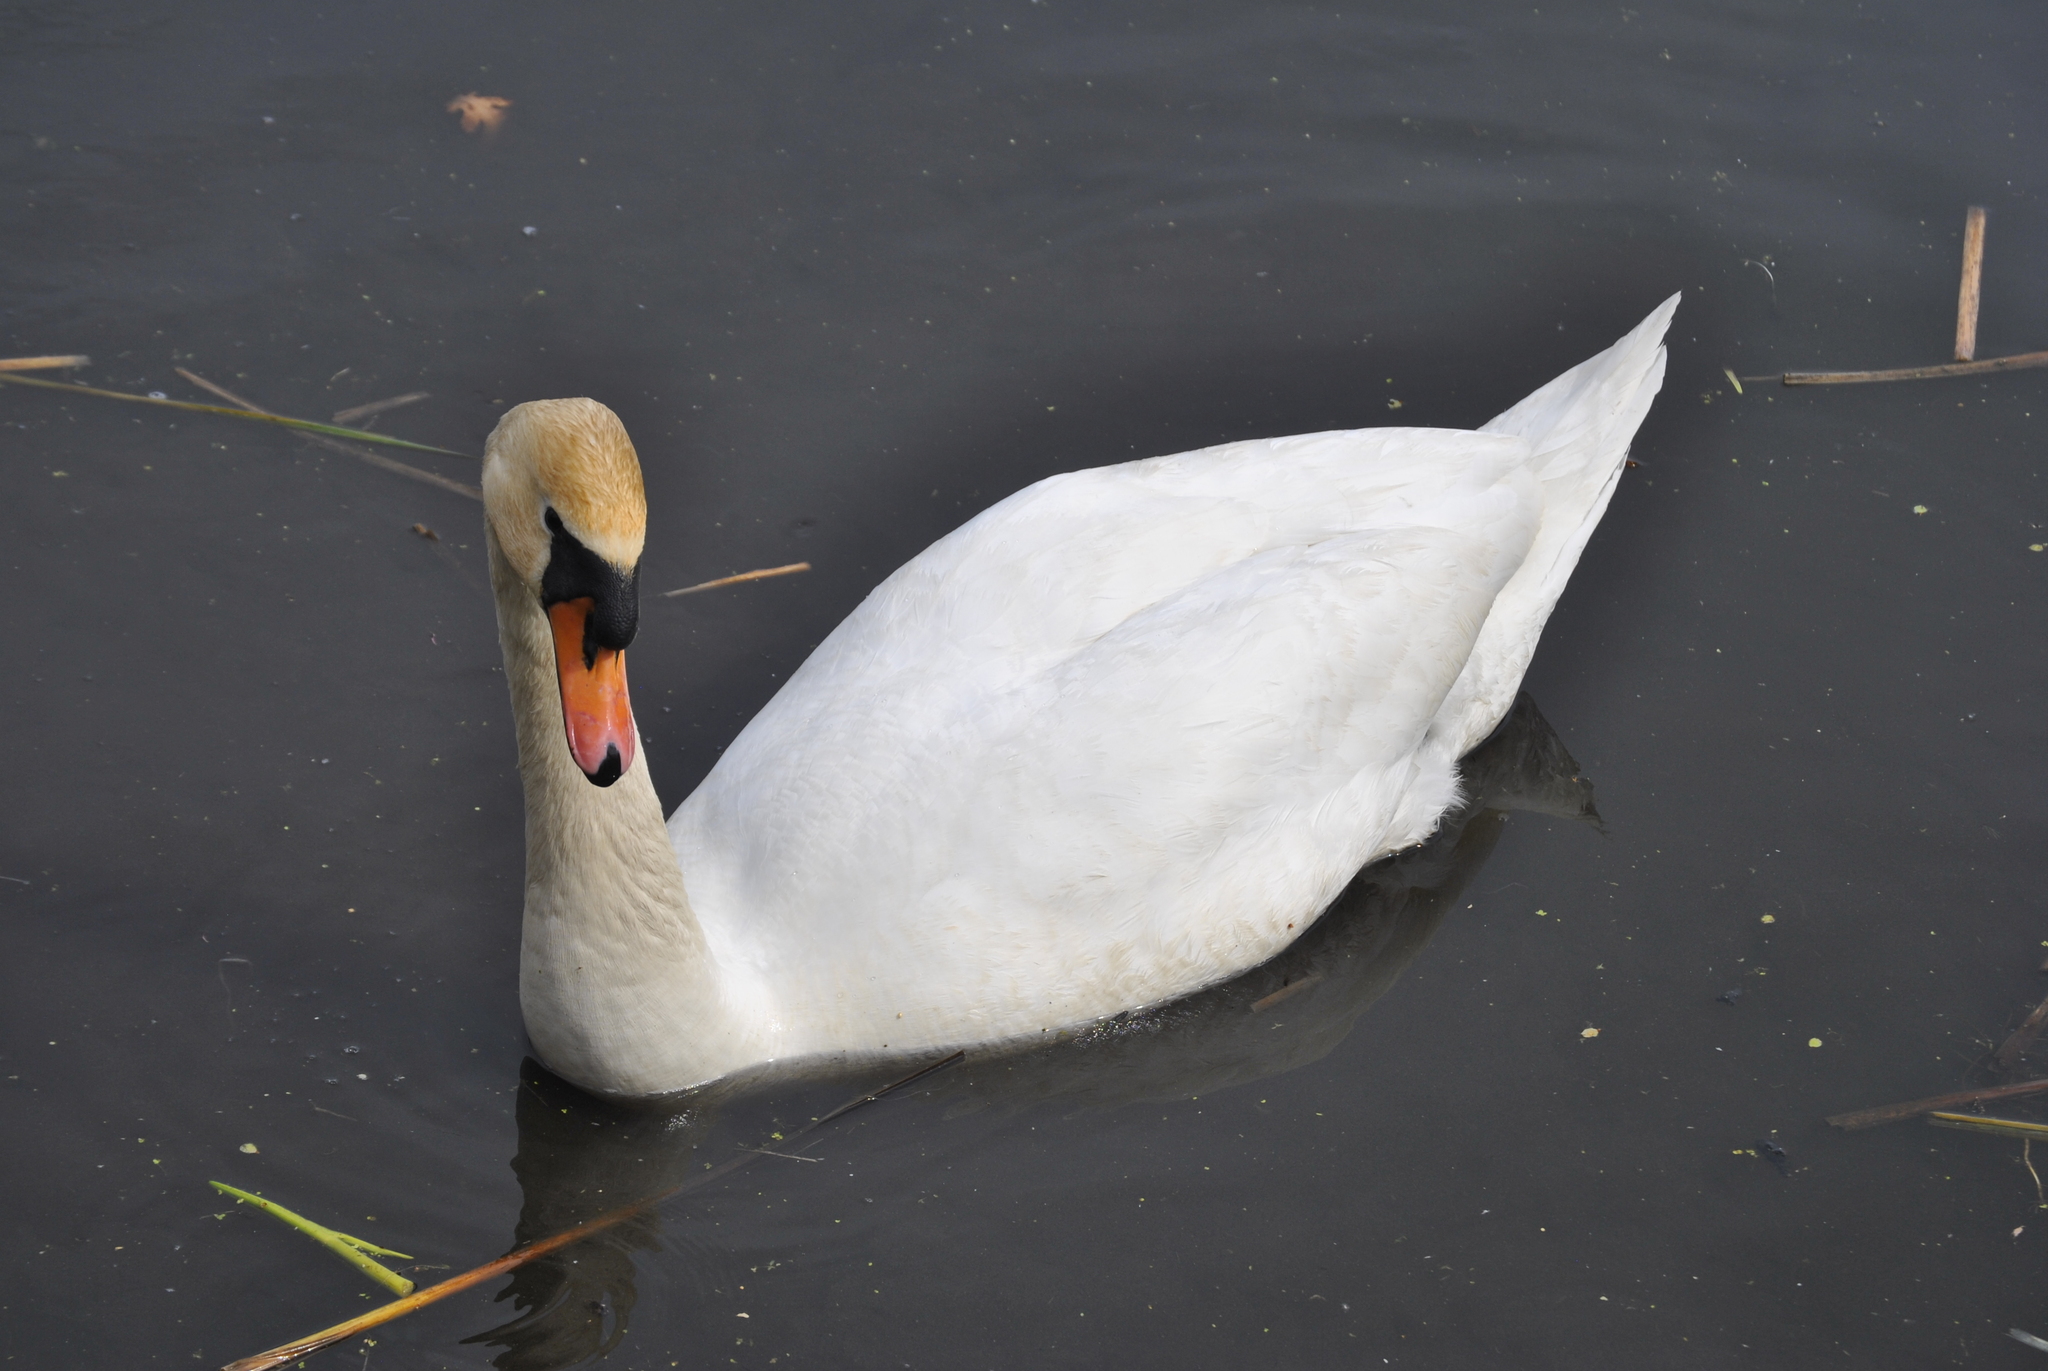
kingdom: Animalia
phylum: Chordata
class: Aves
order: Anseriformes
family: Anatidae
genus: Cygnus
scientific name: Cygnus olor
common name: Mute swan
